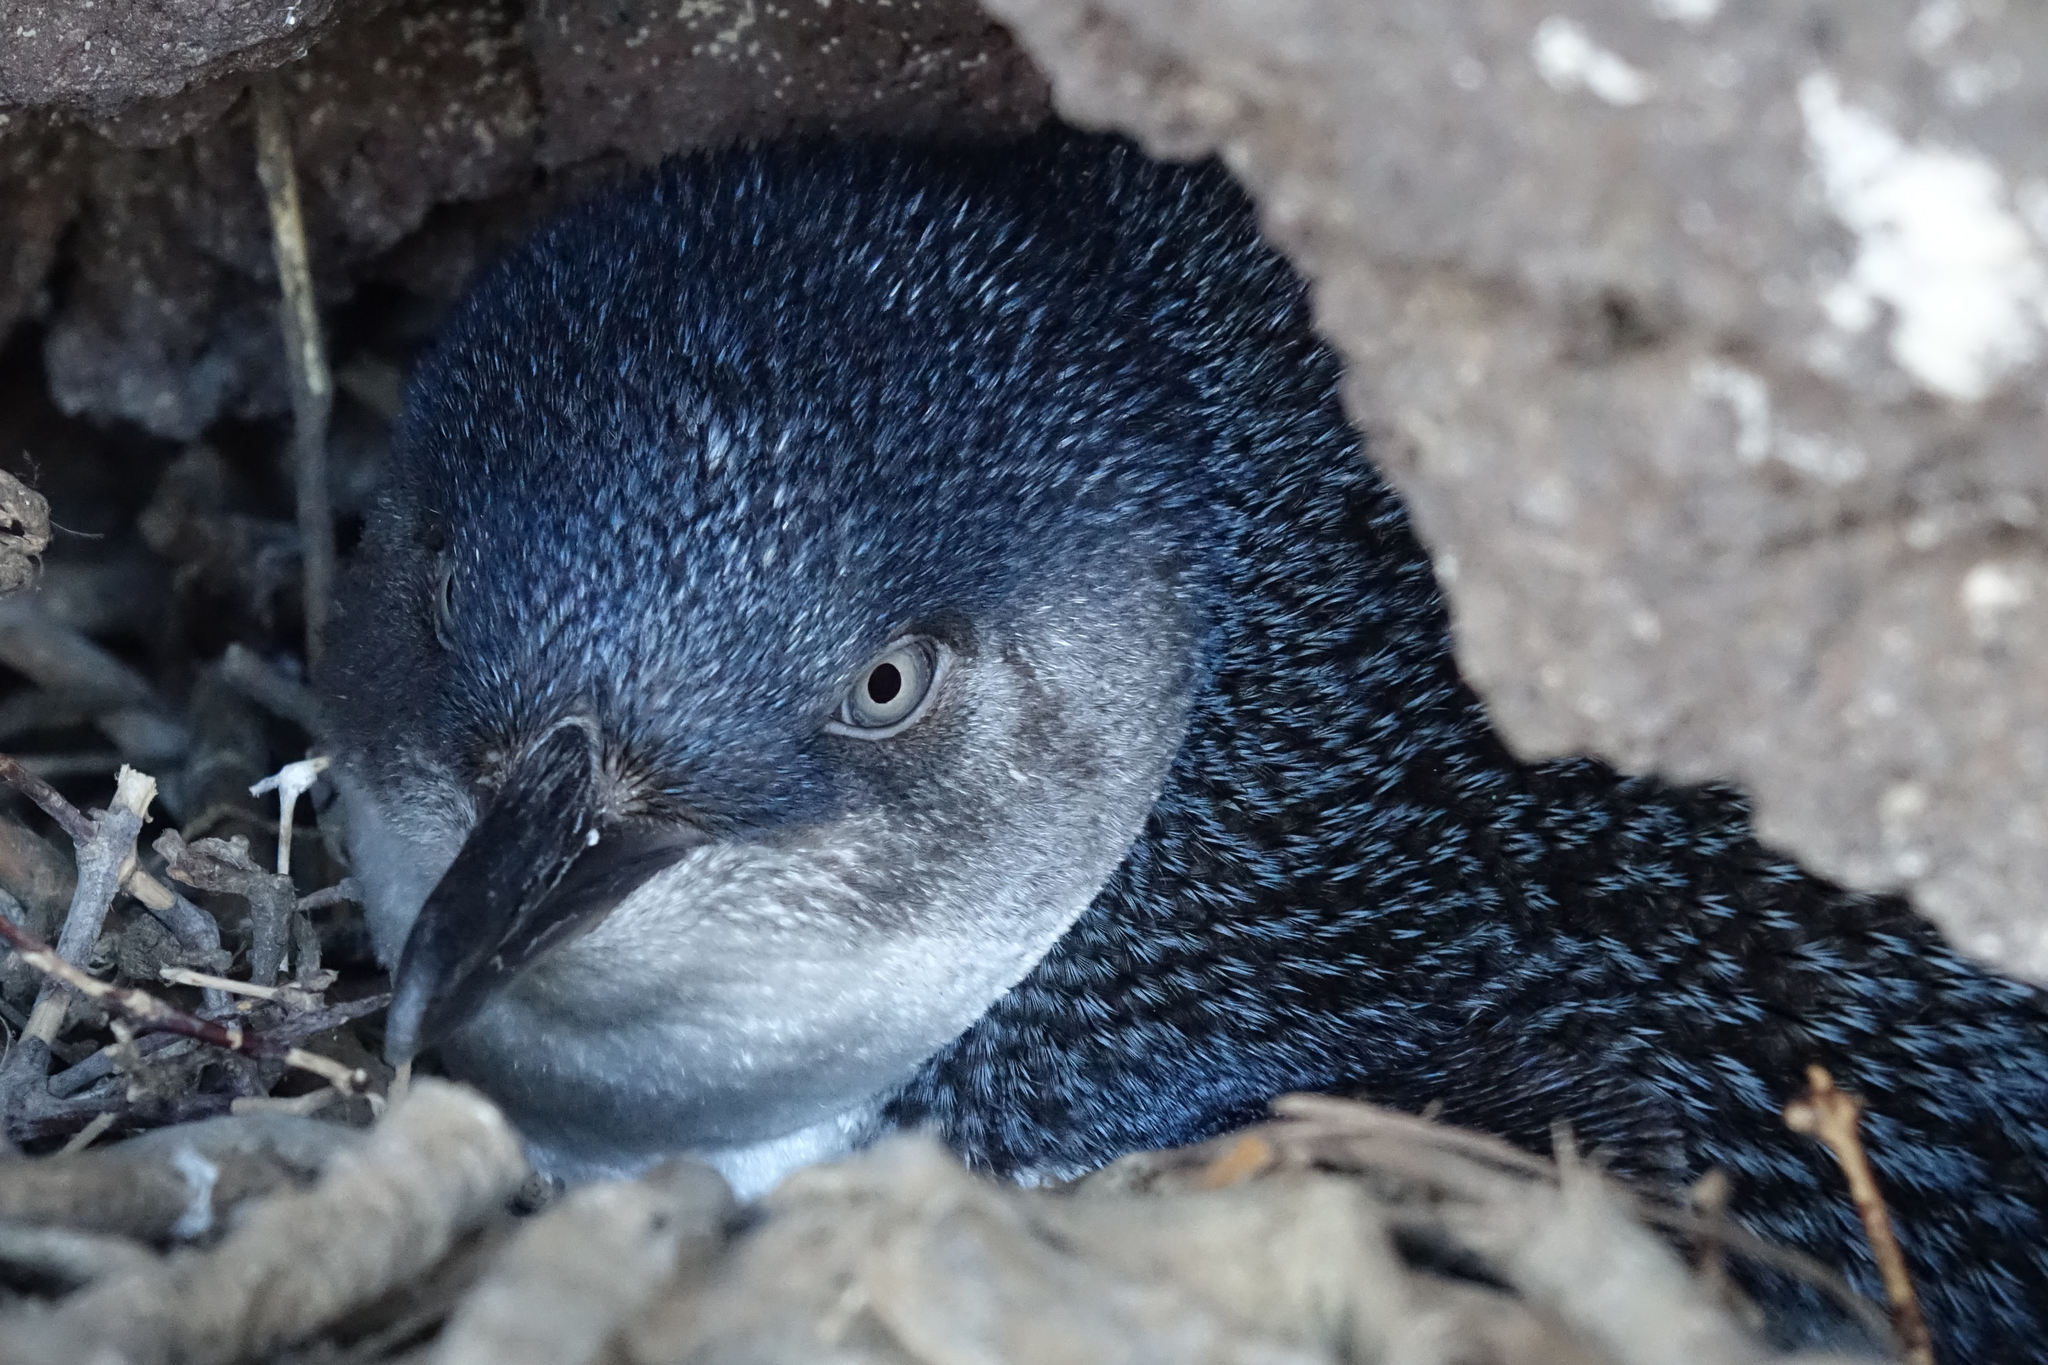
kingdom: Animalia
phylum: Chordata
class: Aves
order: Sphenisciformes
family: Spheniscidae
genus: Eudyptula
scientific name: Eudyptula minor
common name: Little penguin
